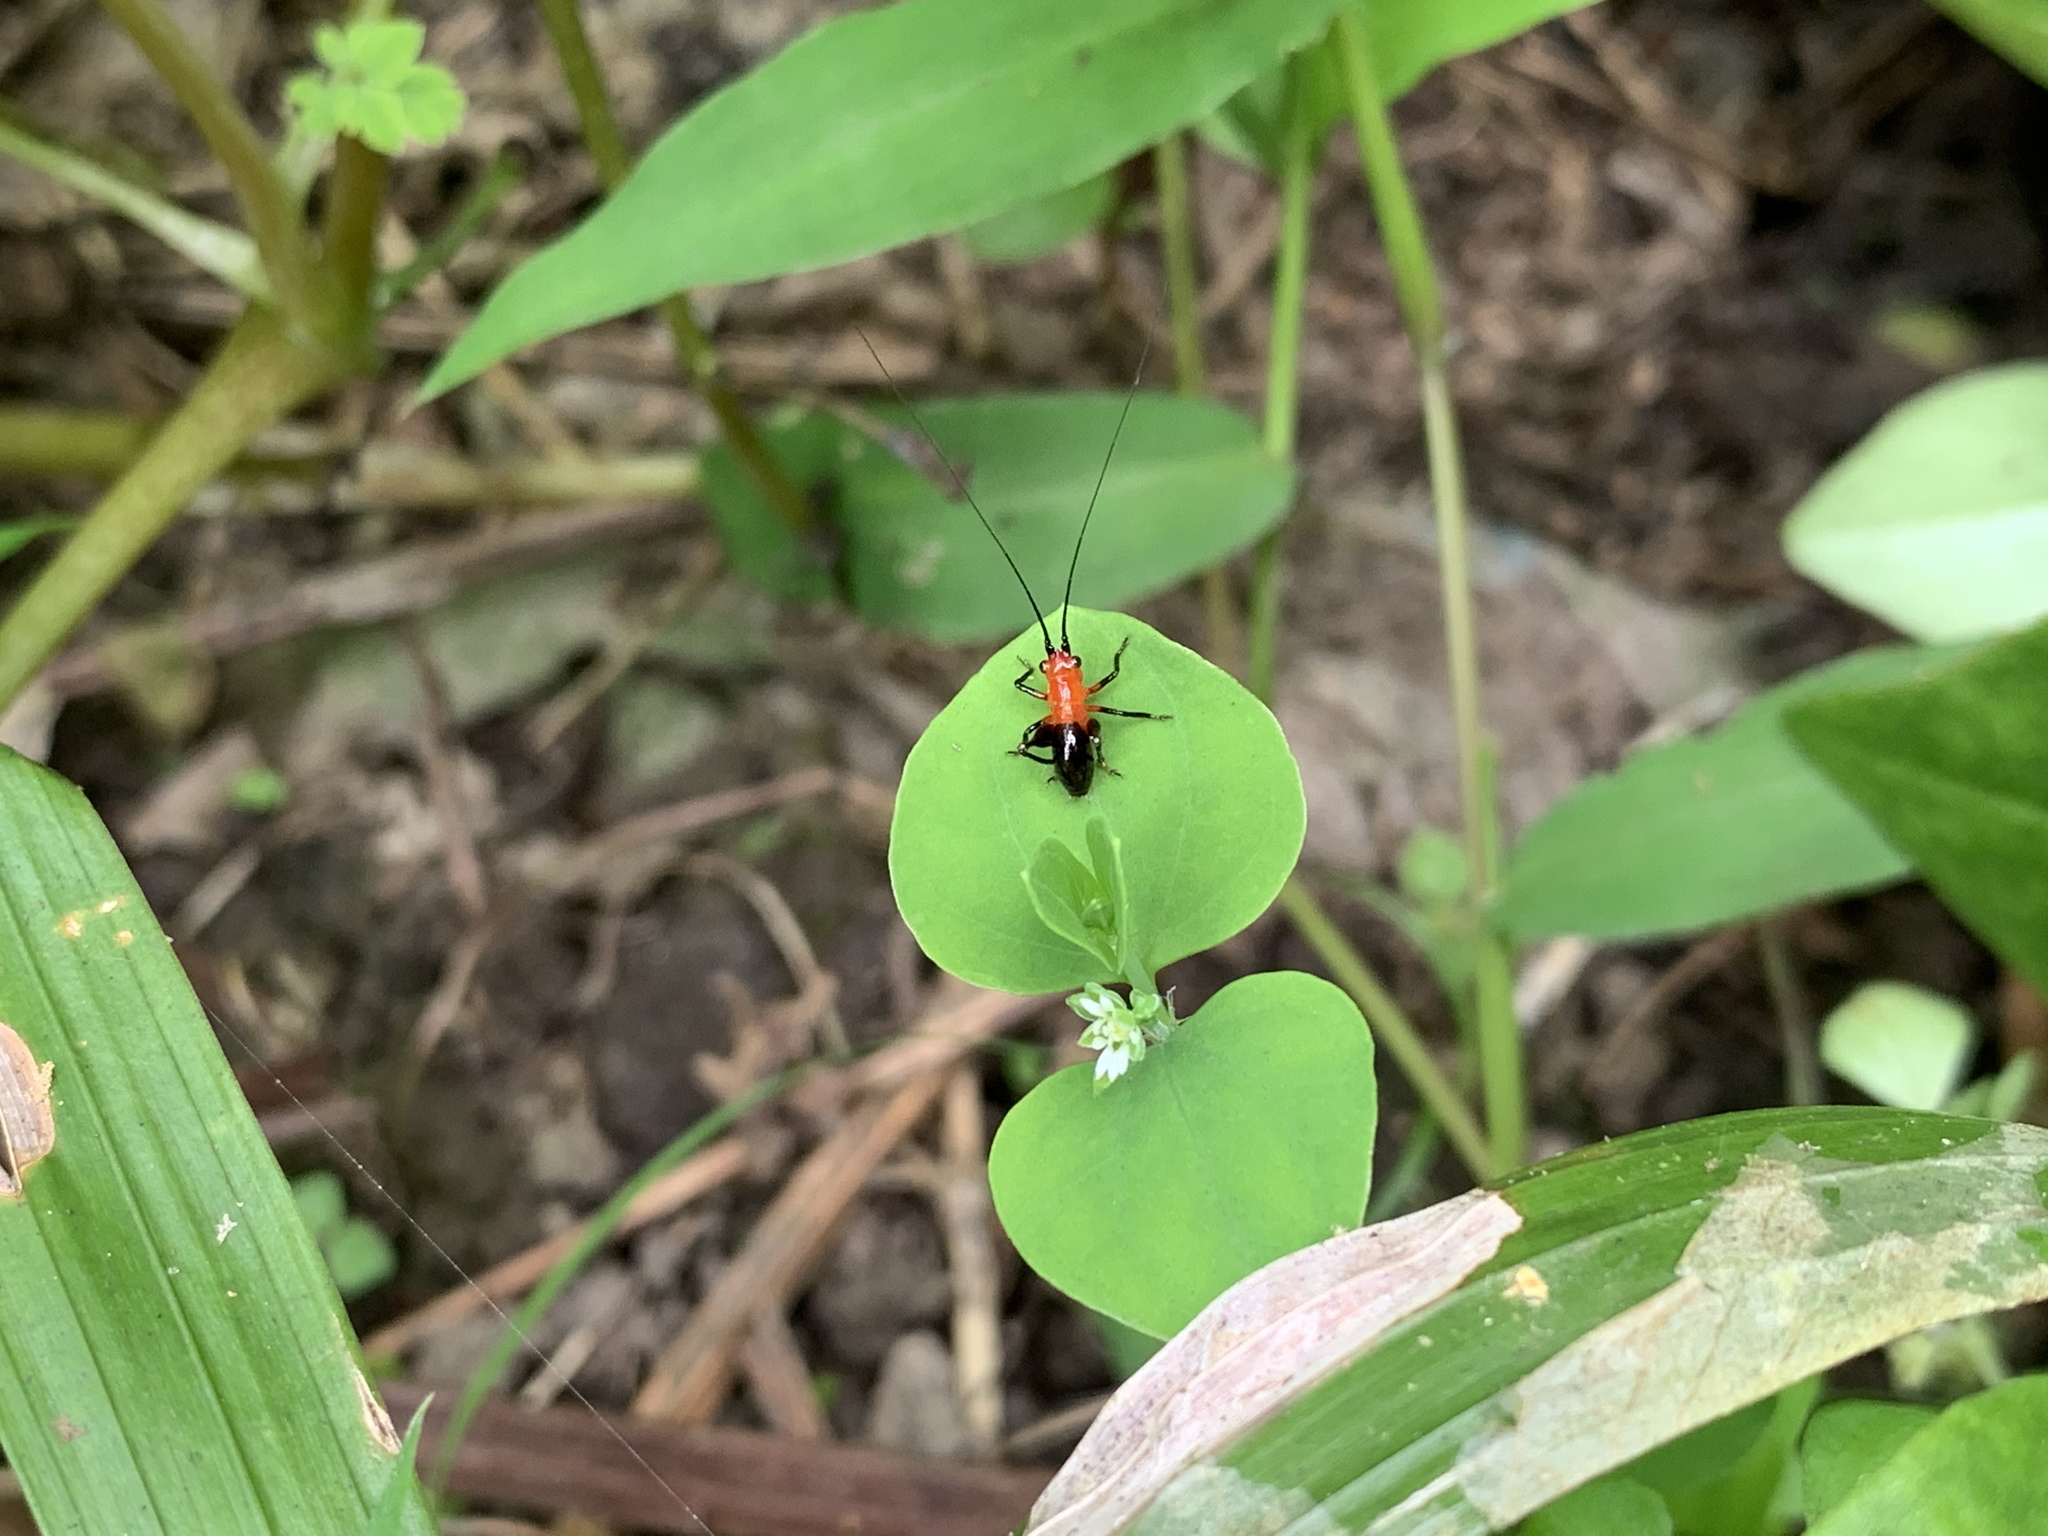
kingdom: Animalia
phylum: Arthropoda
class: Insecta
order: Orthoptera
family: Tettigoniidae
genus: Conocephalus
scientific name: Conocephalus melaenus
